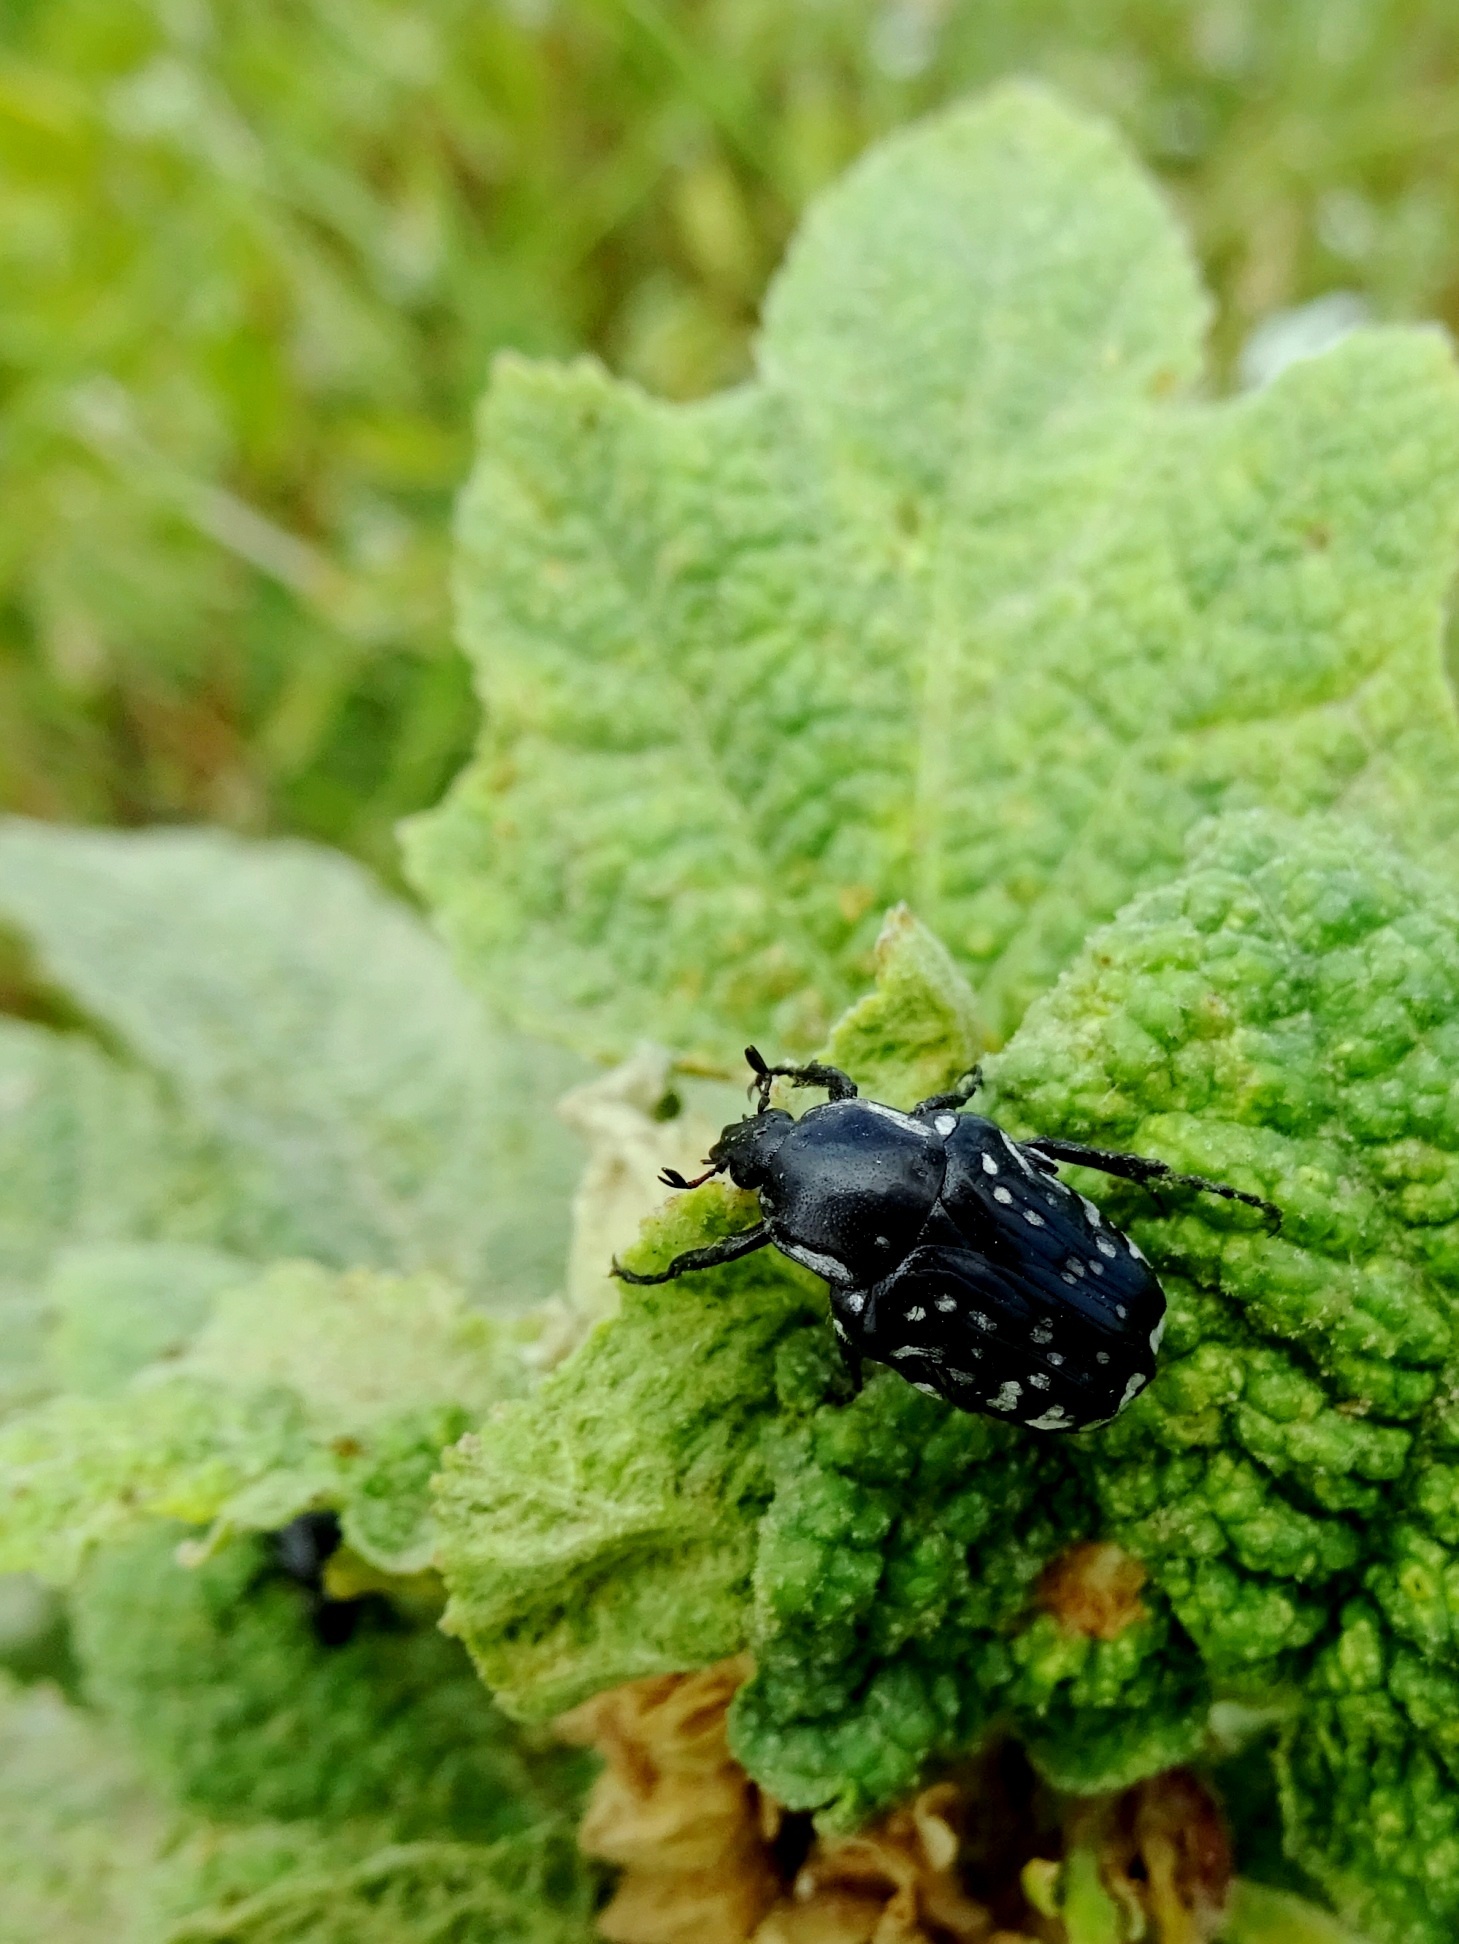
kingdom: Animalia
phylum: Arthropoda
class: Insecta
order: Coleoptera
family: Scarabaeidae
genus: Oxythyrea
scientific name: Oxythyrea cinctella
